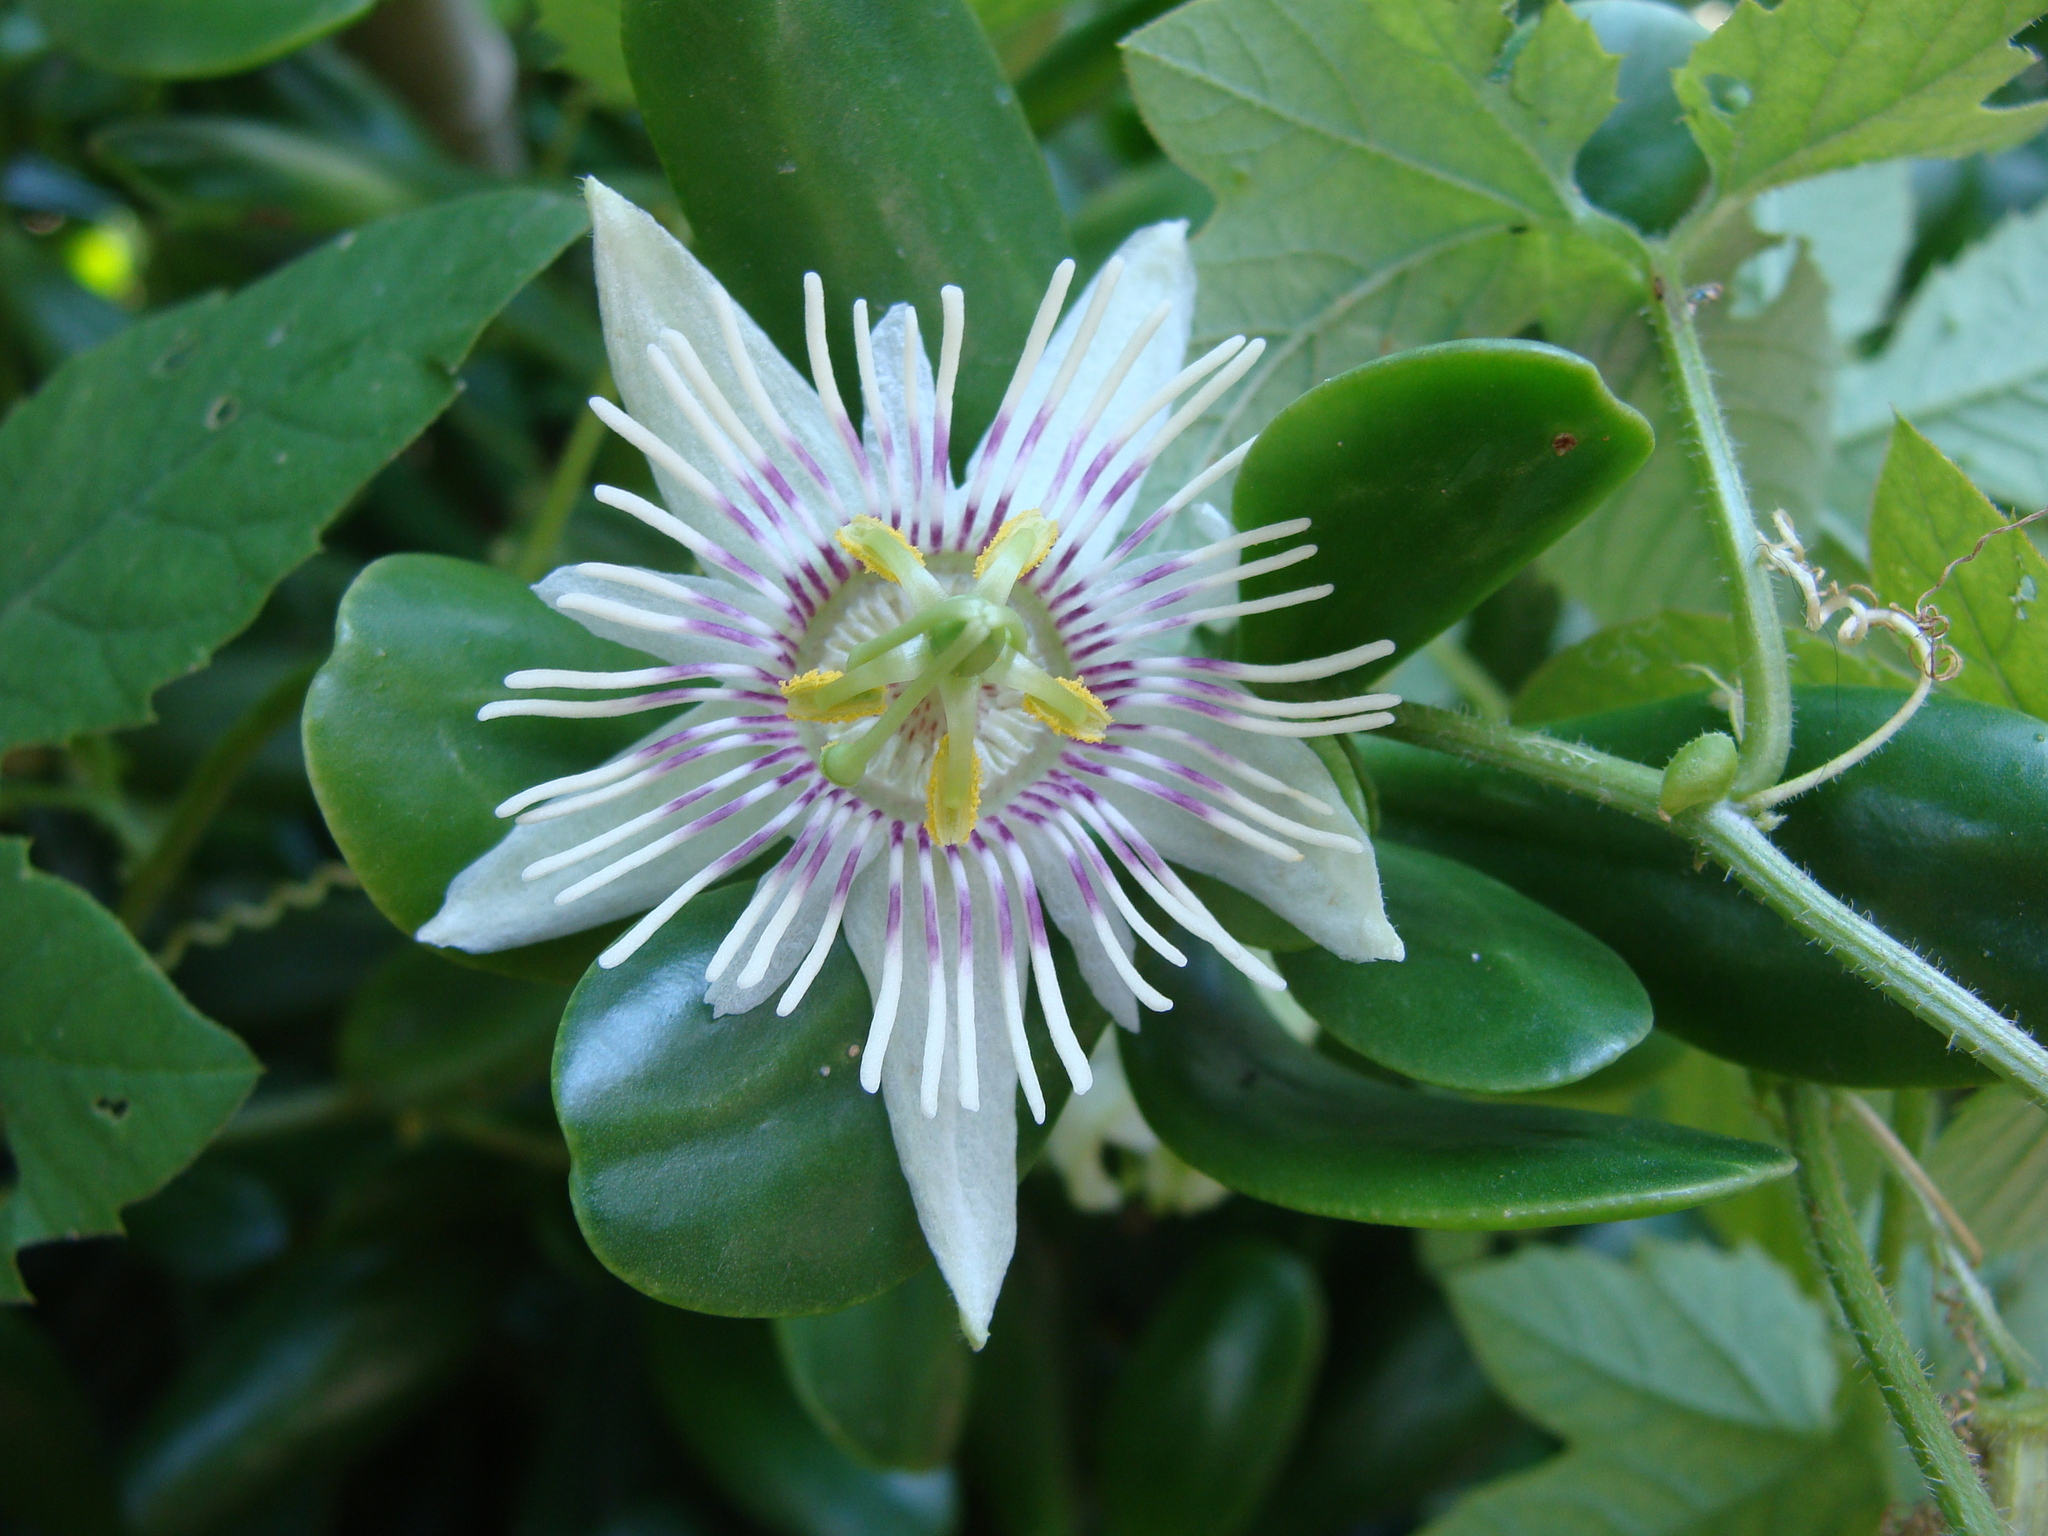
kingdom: Plantae
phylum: Tracheophyta
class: Magnoliopsida
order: Malpighiales
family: Passifloraceae
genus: Passiflora
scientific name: Passiflora bryonioides
